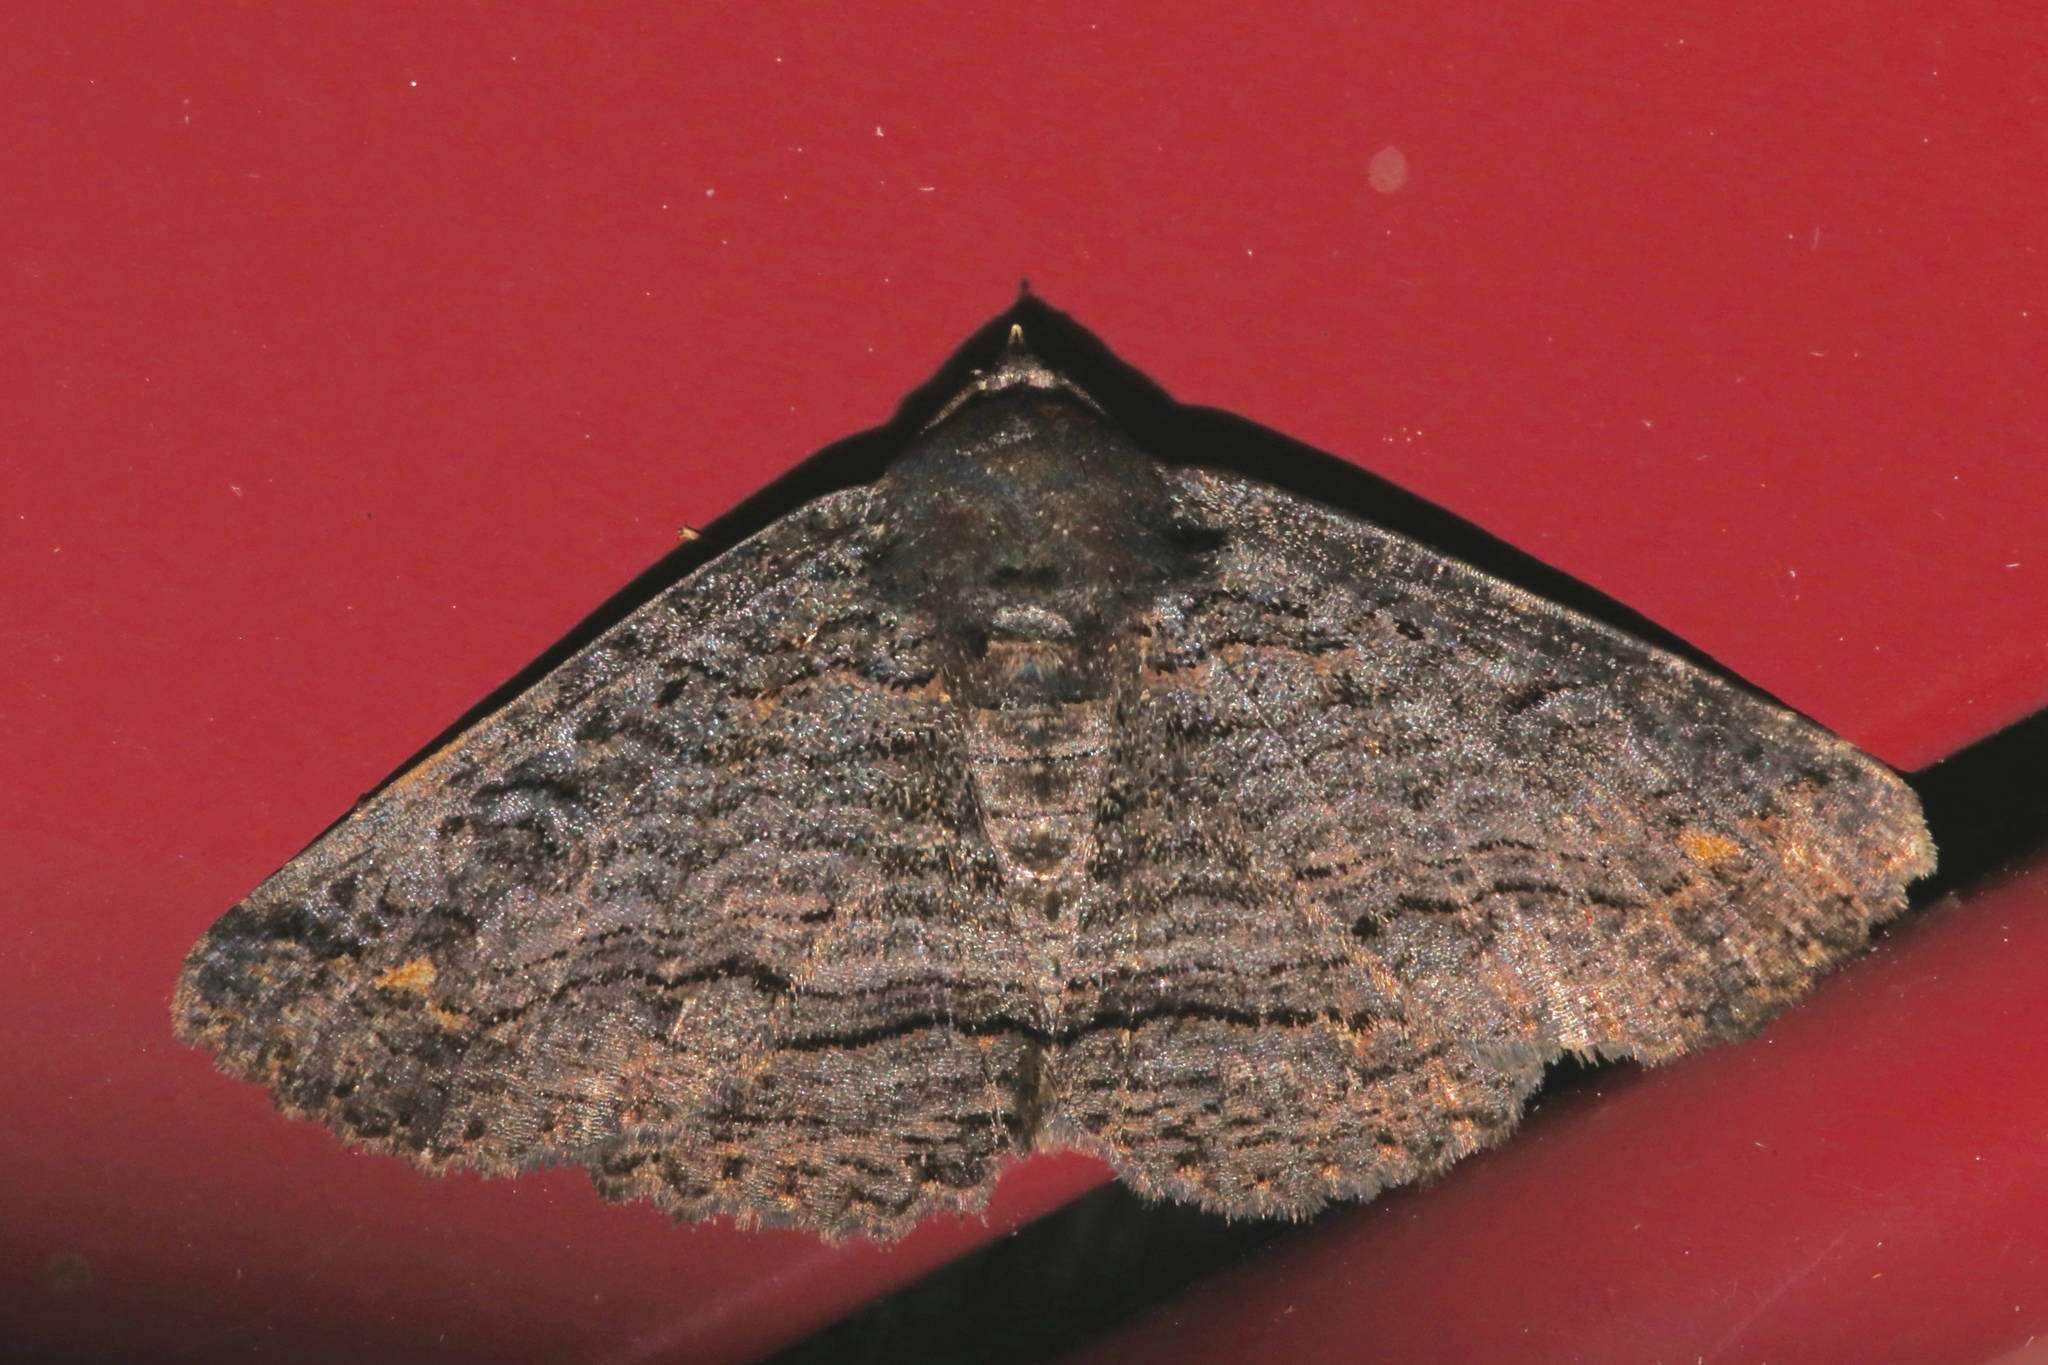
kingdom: Animalia
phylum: Arthropoda
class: Insecta
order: Lepidoptera
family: Erebidae
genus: Zale
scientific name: Zale undularis
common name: Black zale moth
